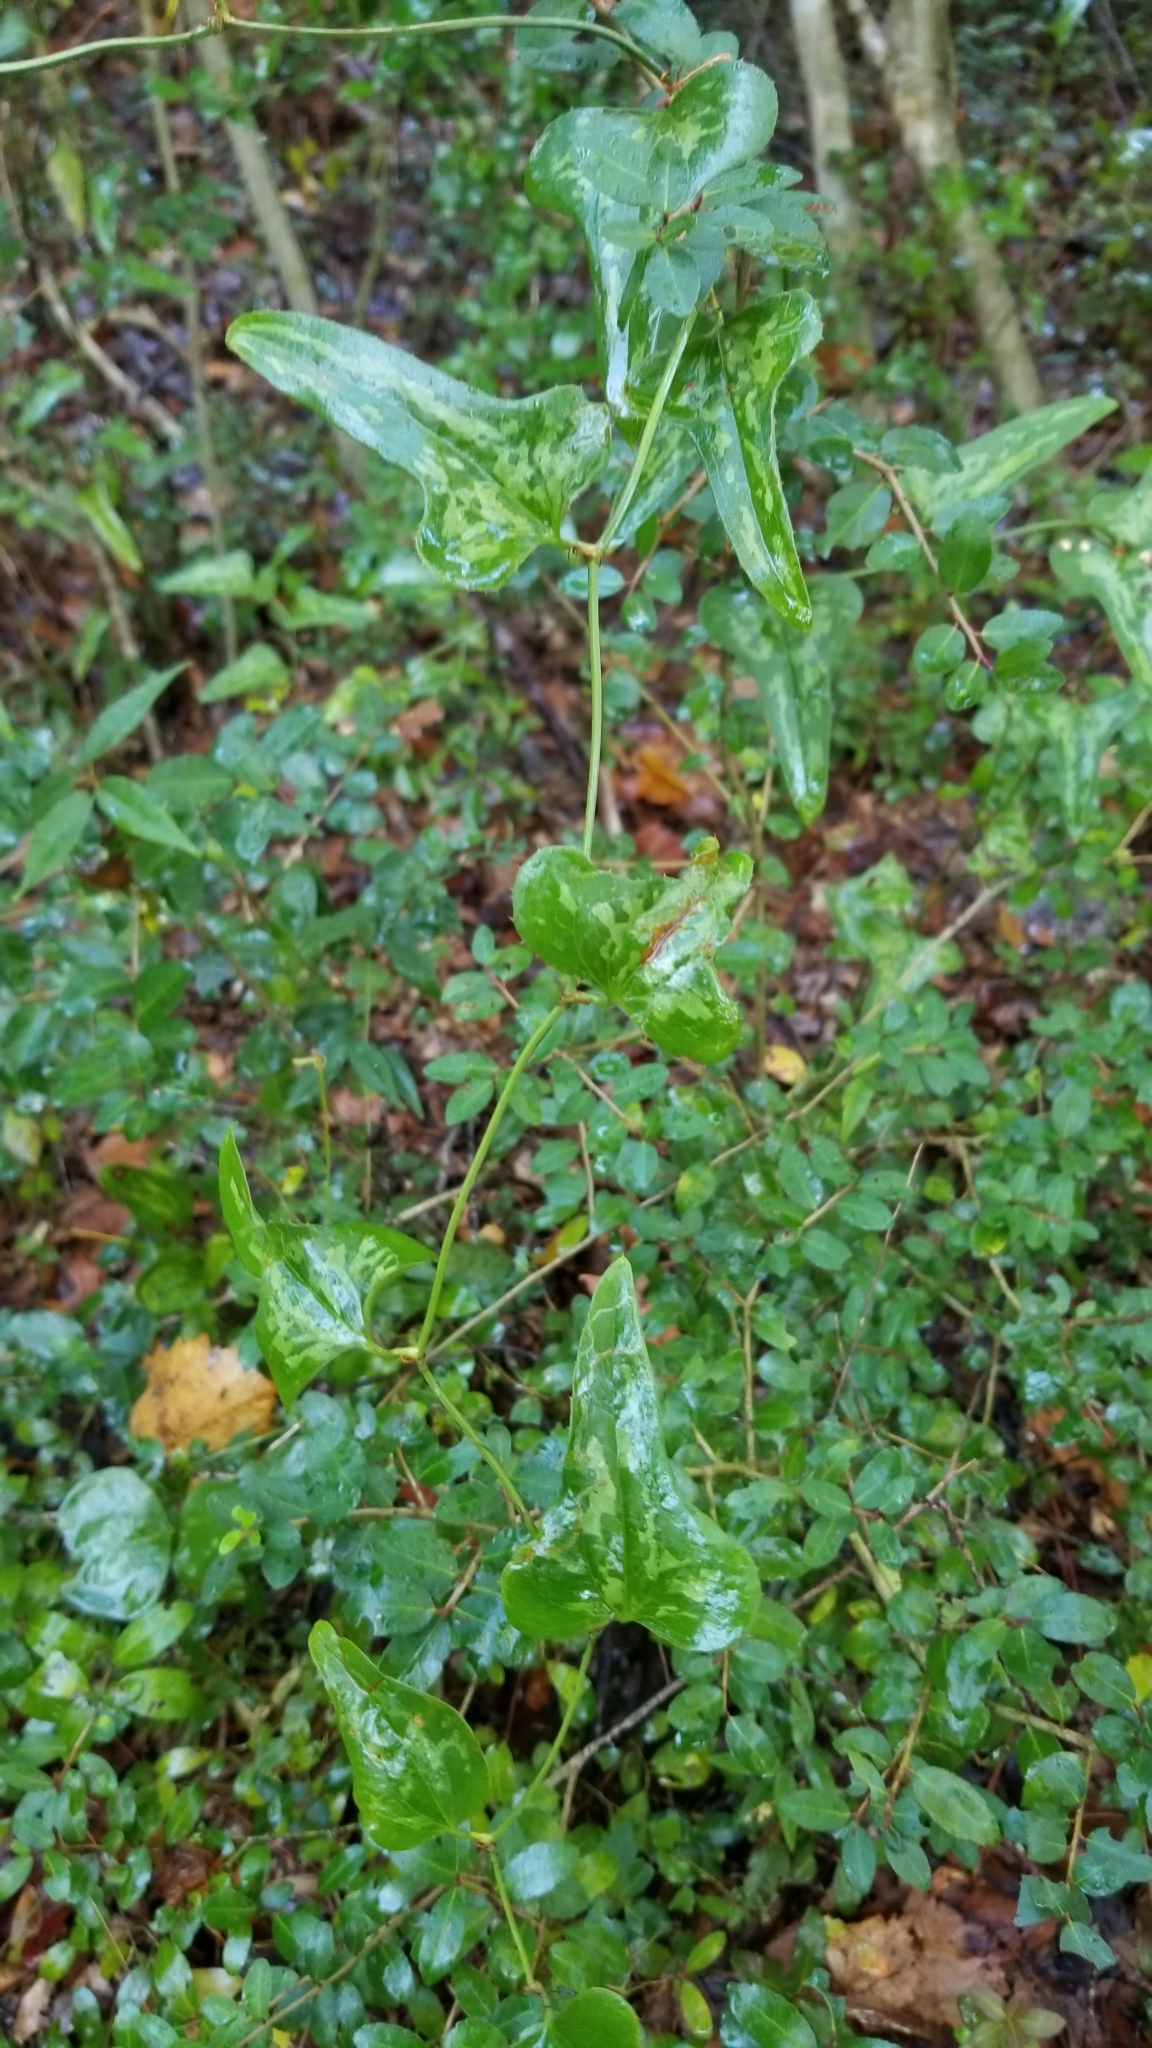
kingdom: Plantae
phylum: Tracheophyta
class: Liliopsida
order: Liliales
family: Smilacaceae
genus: Smilax
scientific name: Smilax bona-nox
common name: Catbrier
